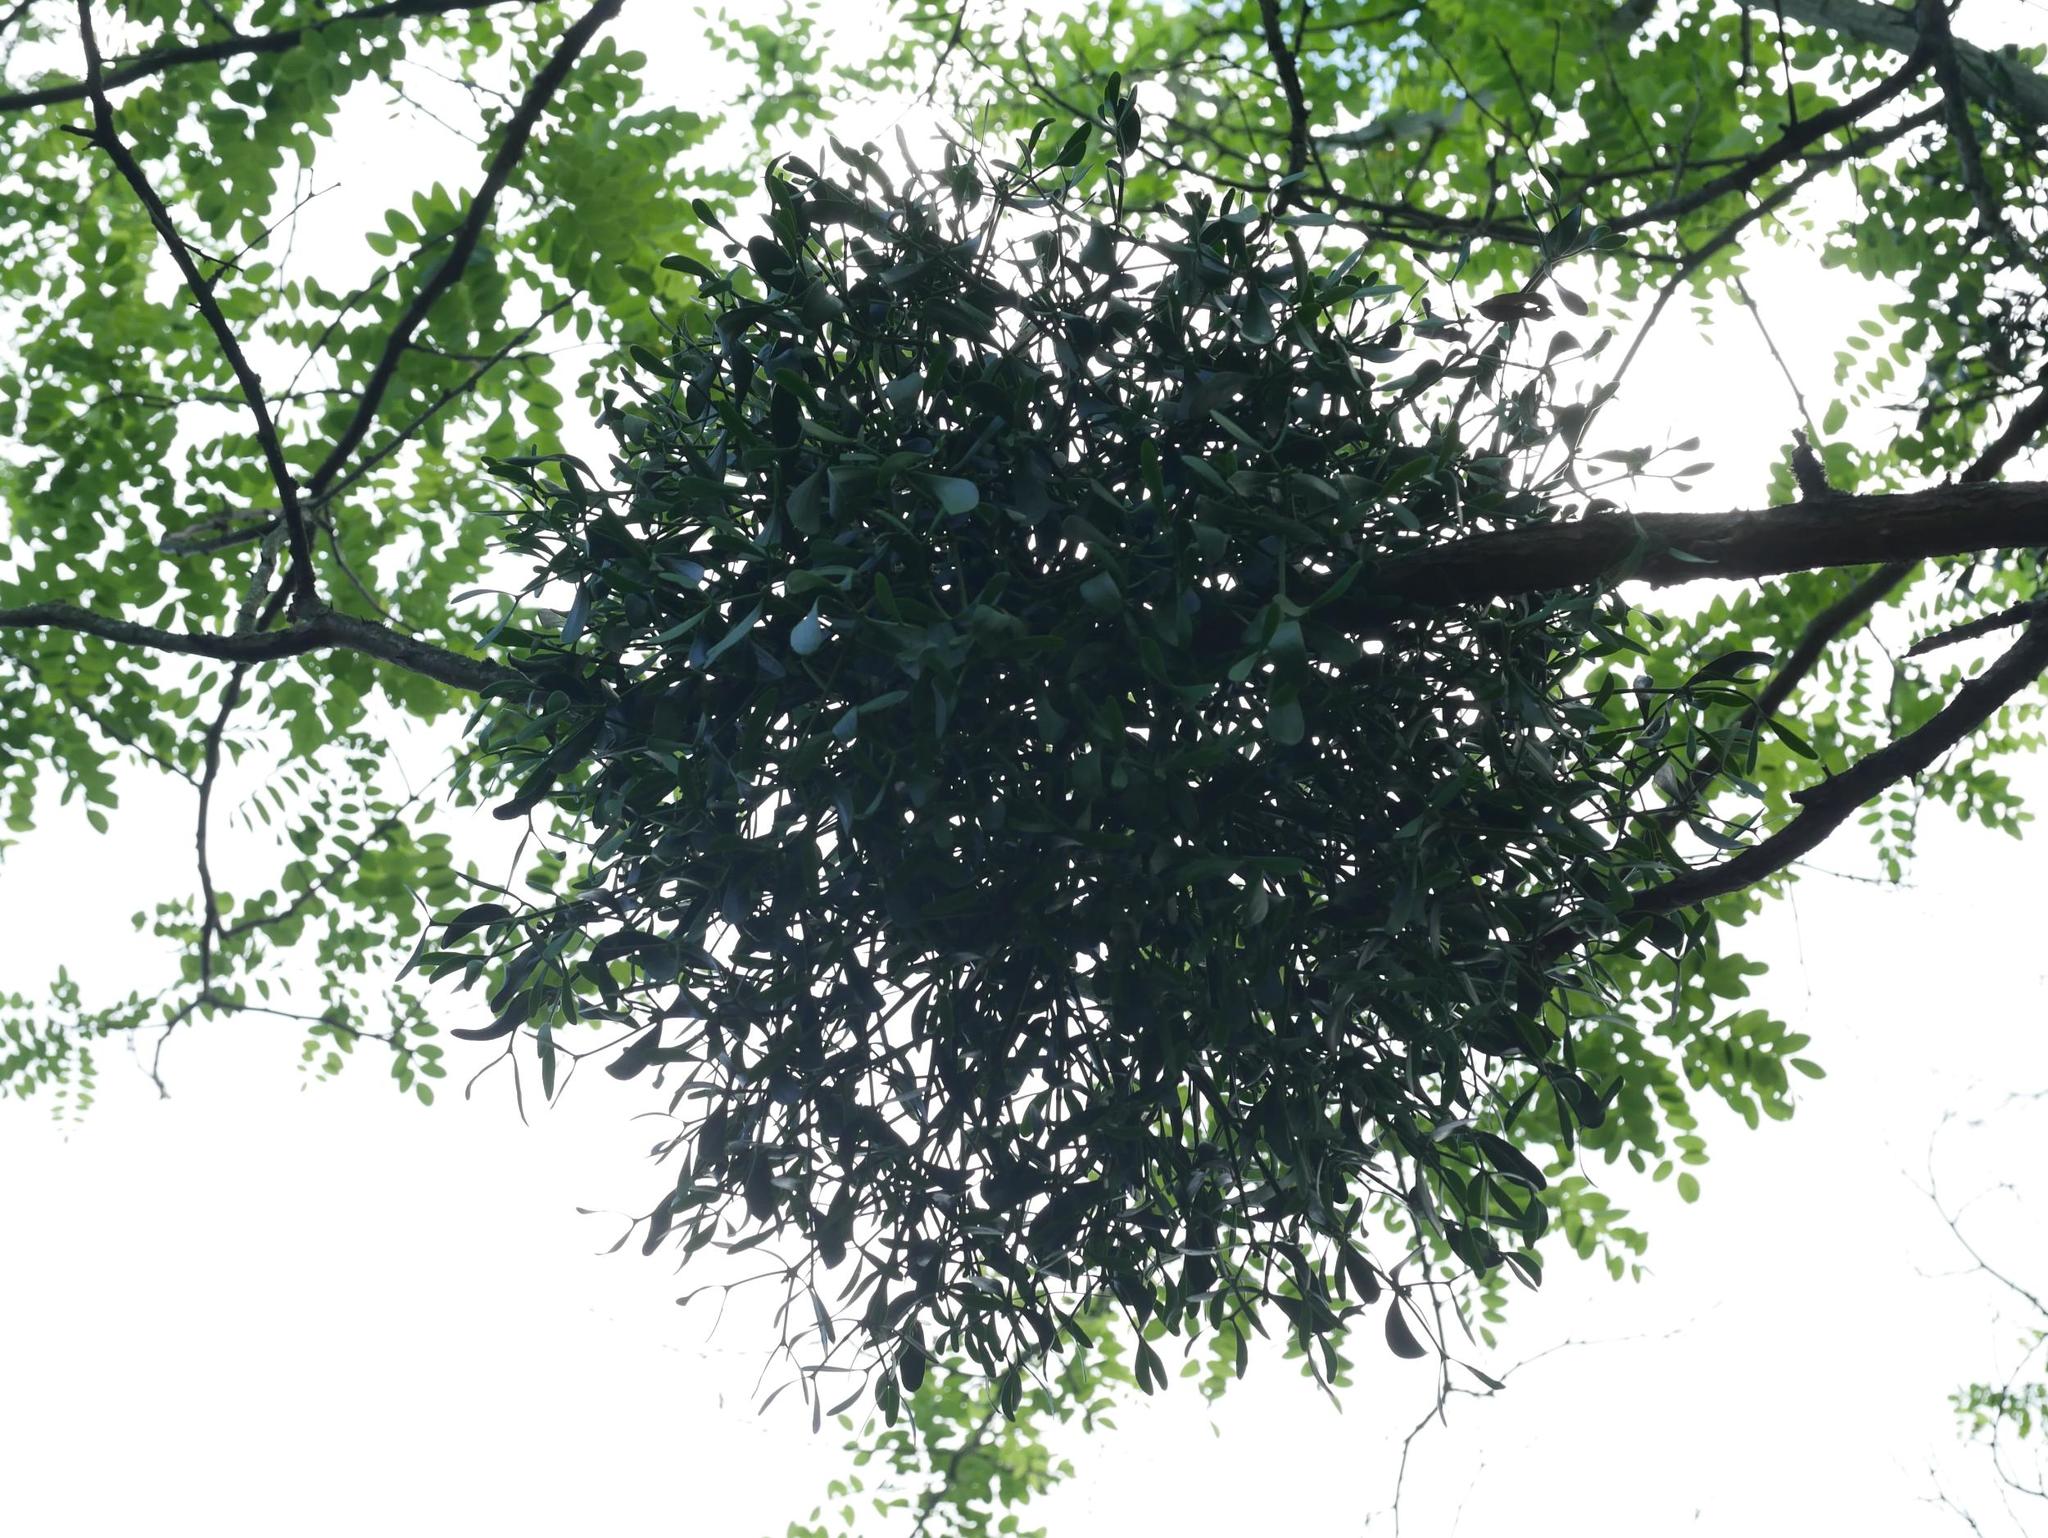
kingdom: Plantae
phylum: Tracheophyta
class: Magnoliopsida
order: Santalales
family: Viscaceae
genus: Viscum
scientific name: Viscum album
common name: Mistletoe
